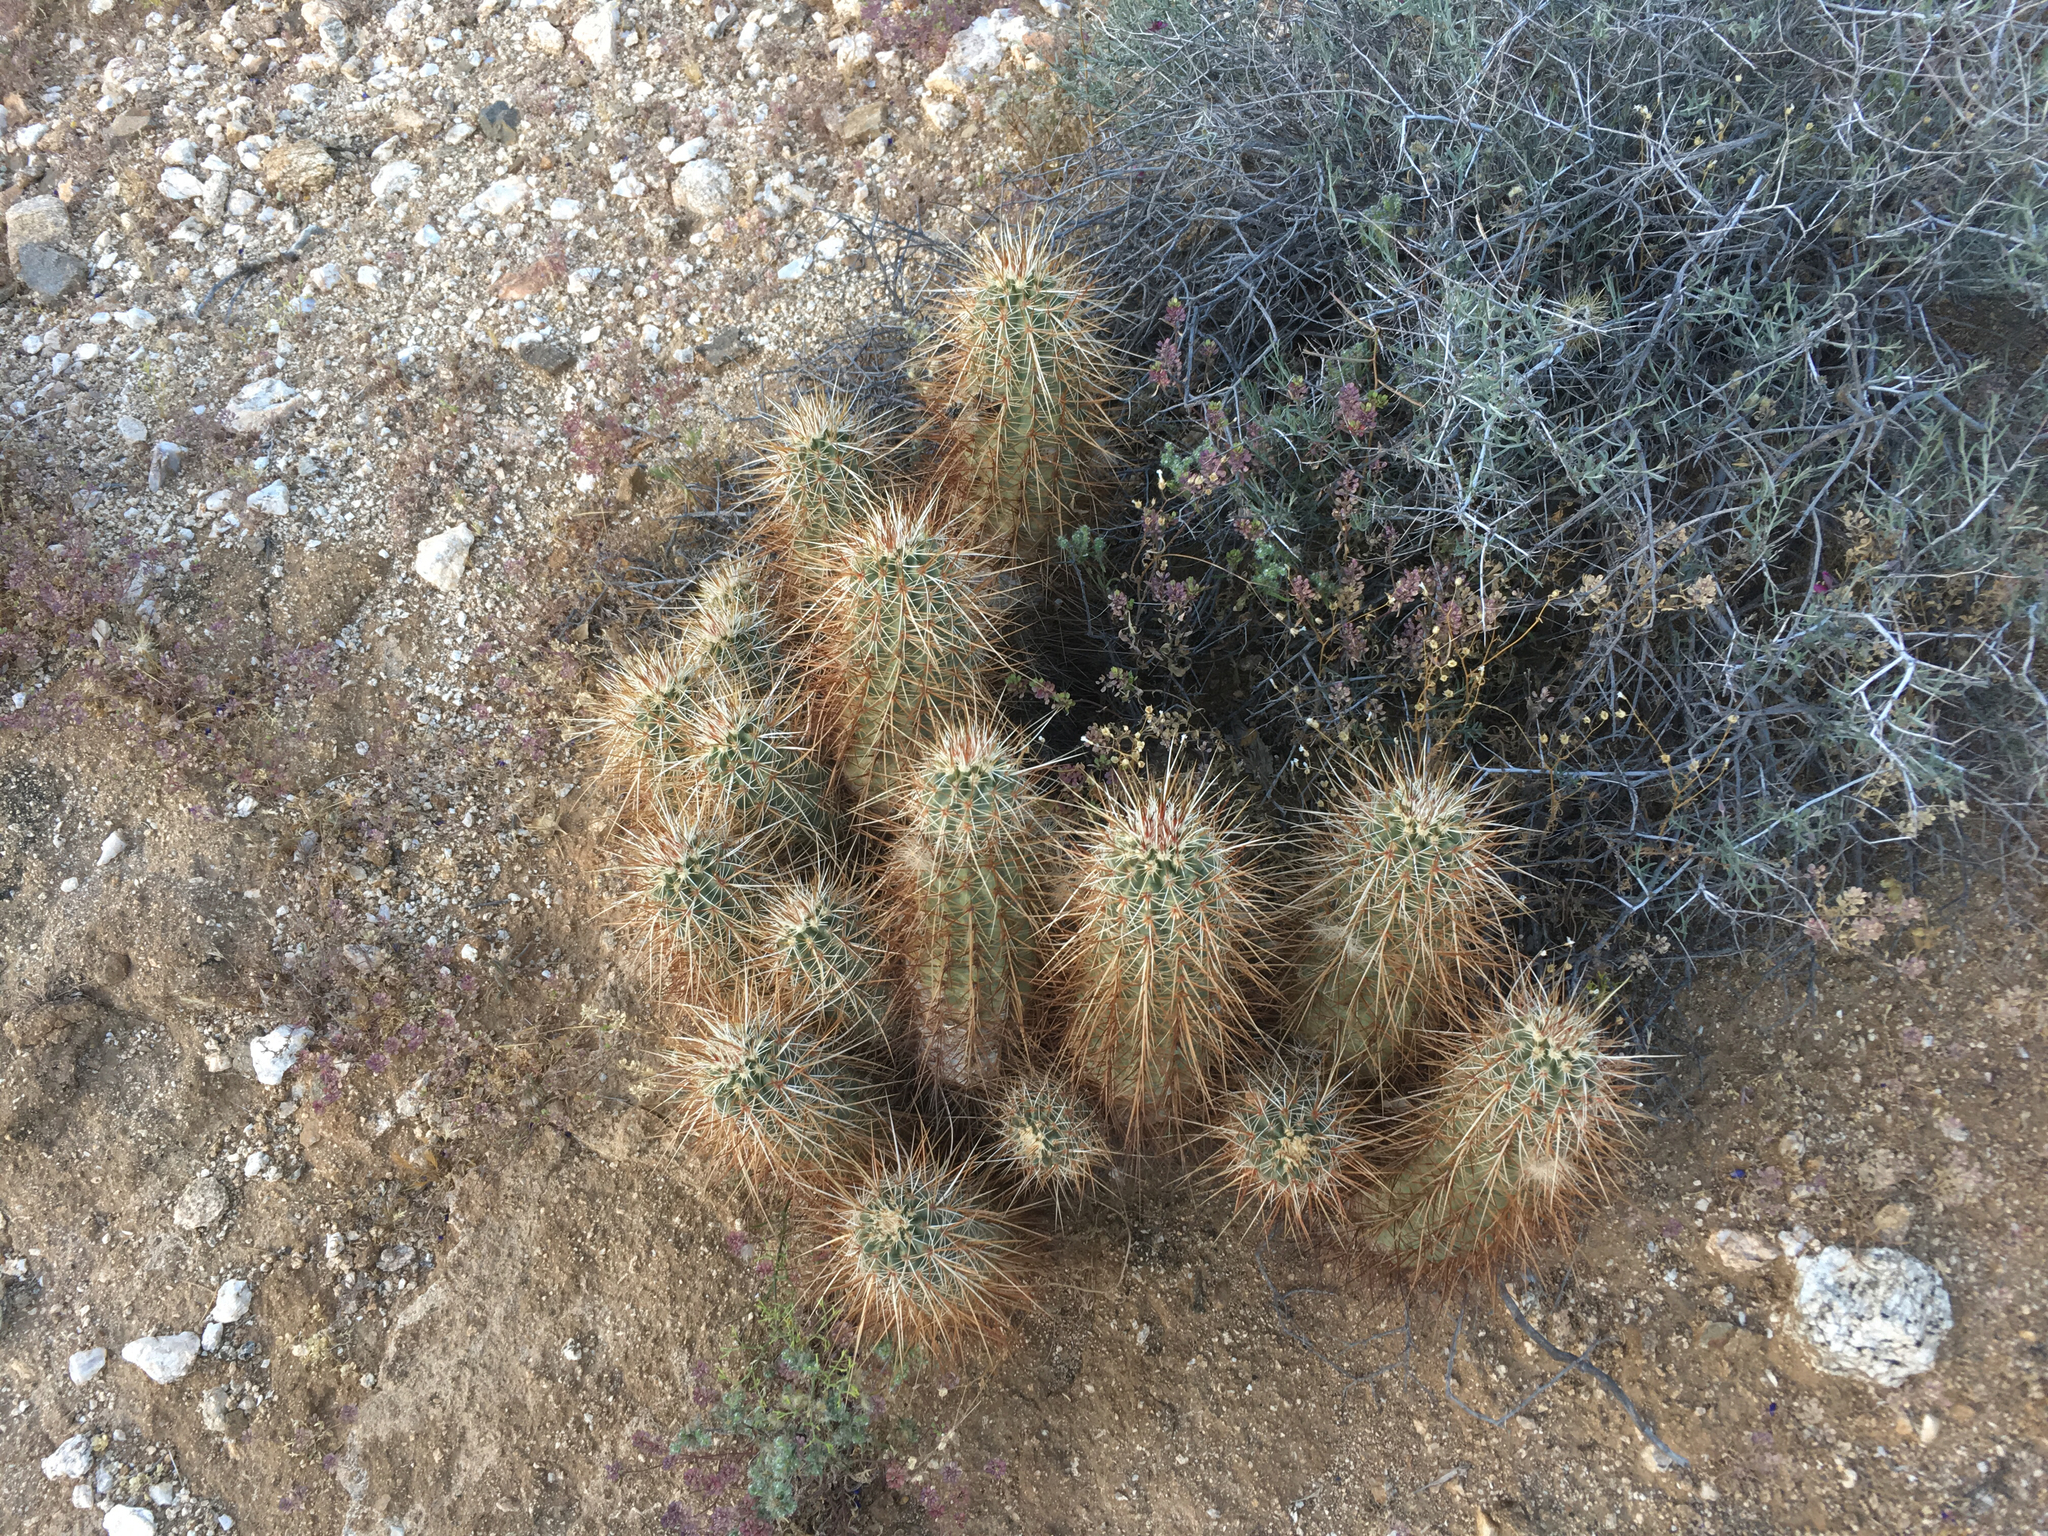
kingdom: Plantae
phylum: Tracheophyta
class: Magnoliopsida
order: Caryophyllales
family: Cactaceae
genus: Echinocereus
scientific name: Echinocereus engelmannii
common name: Engelmann's hedgehog cactus
